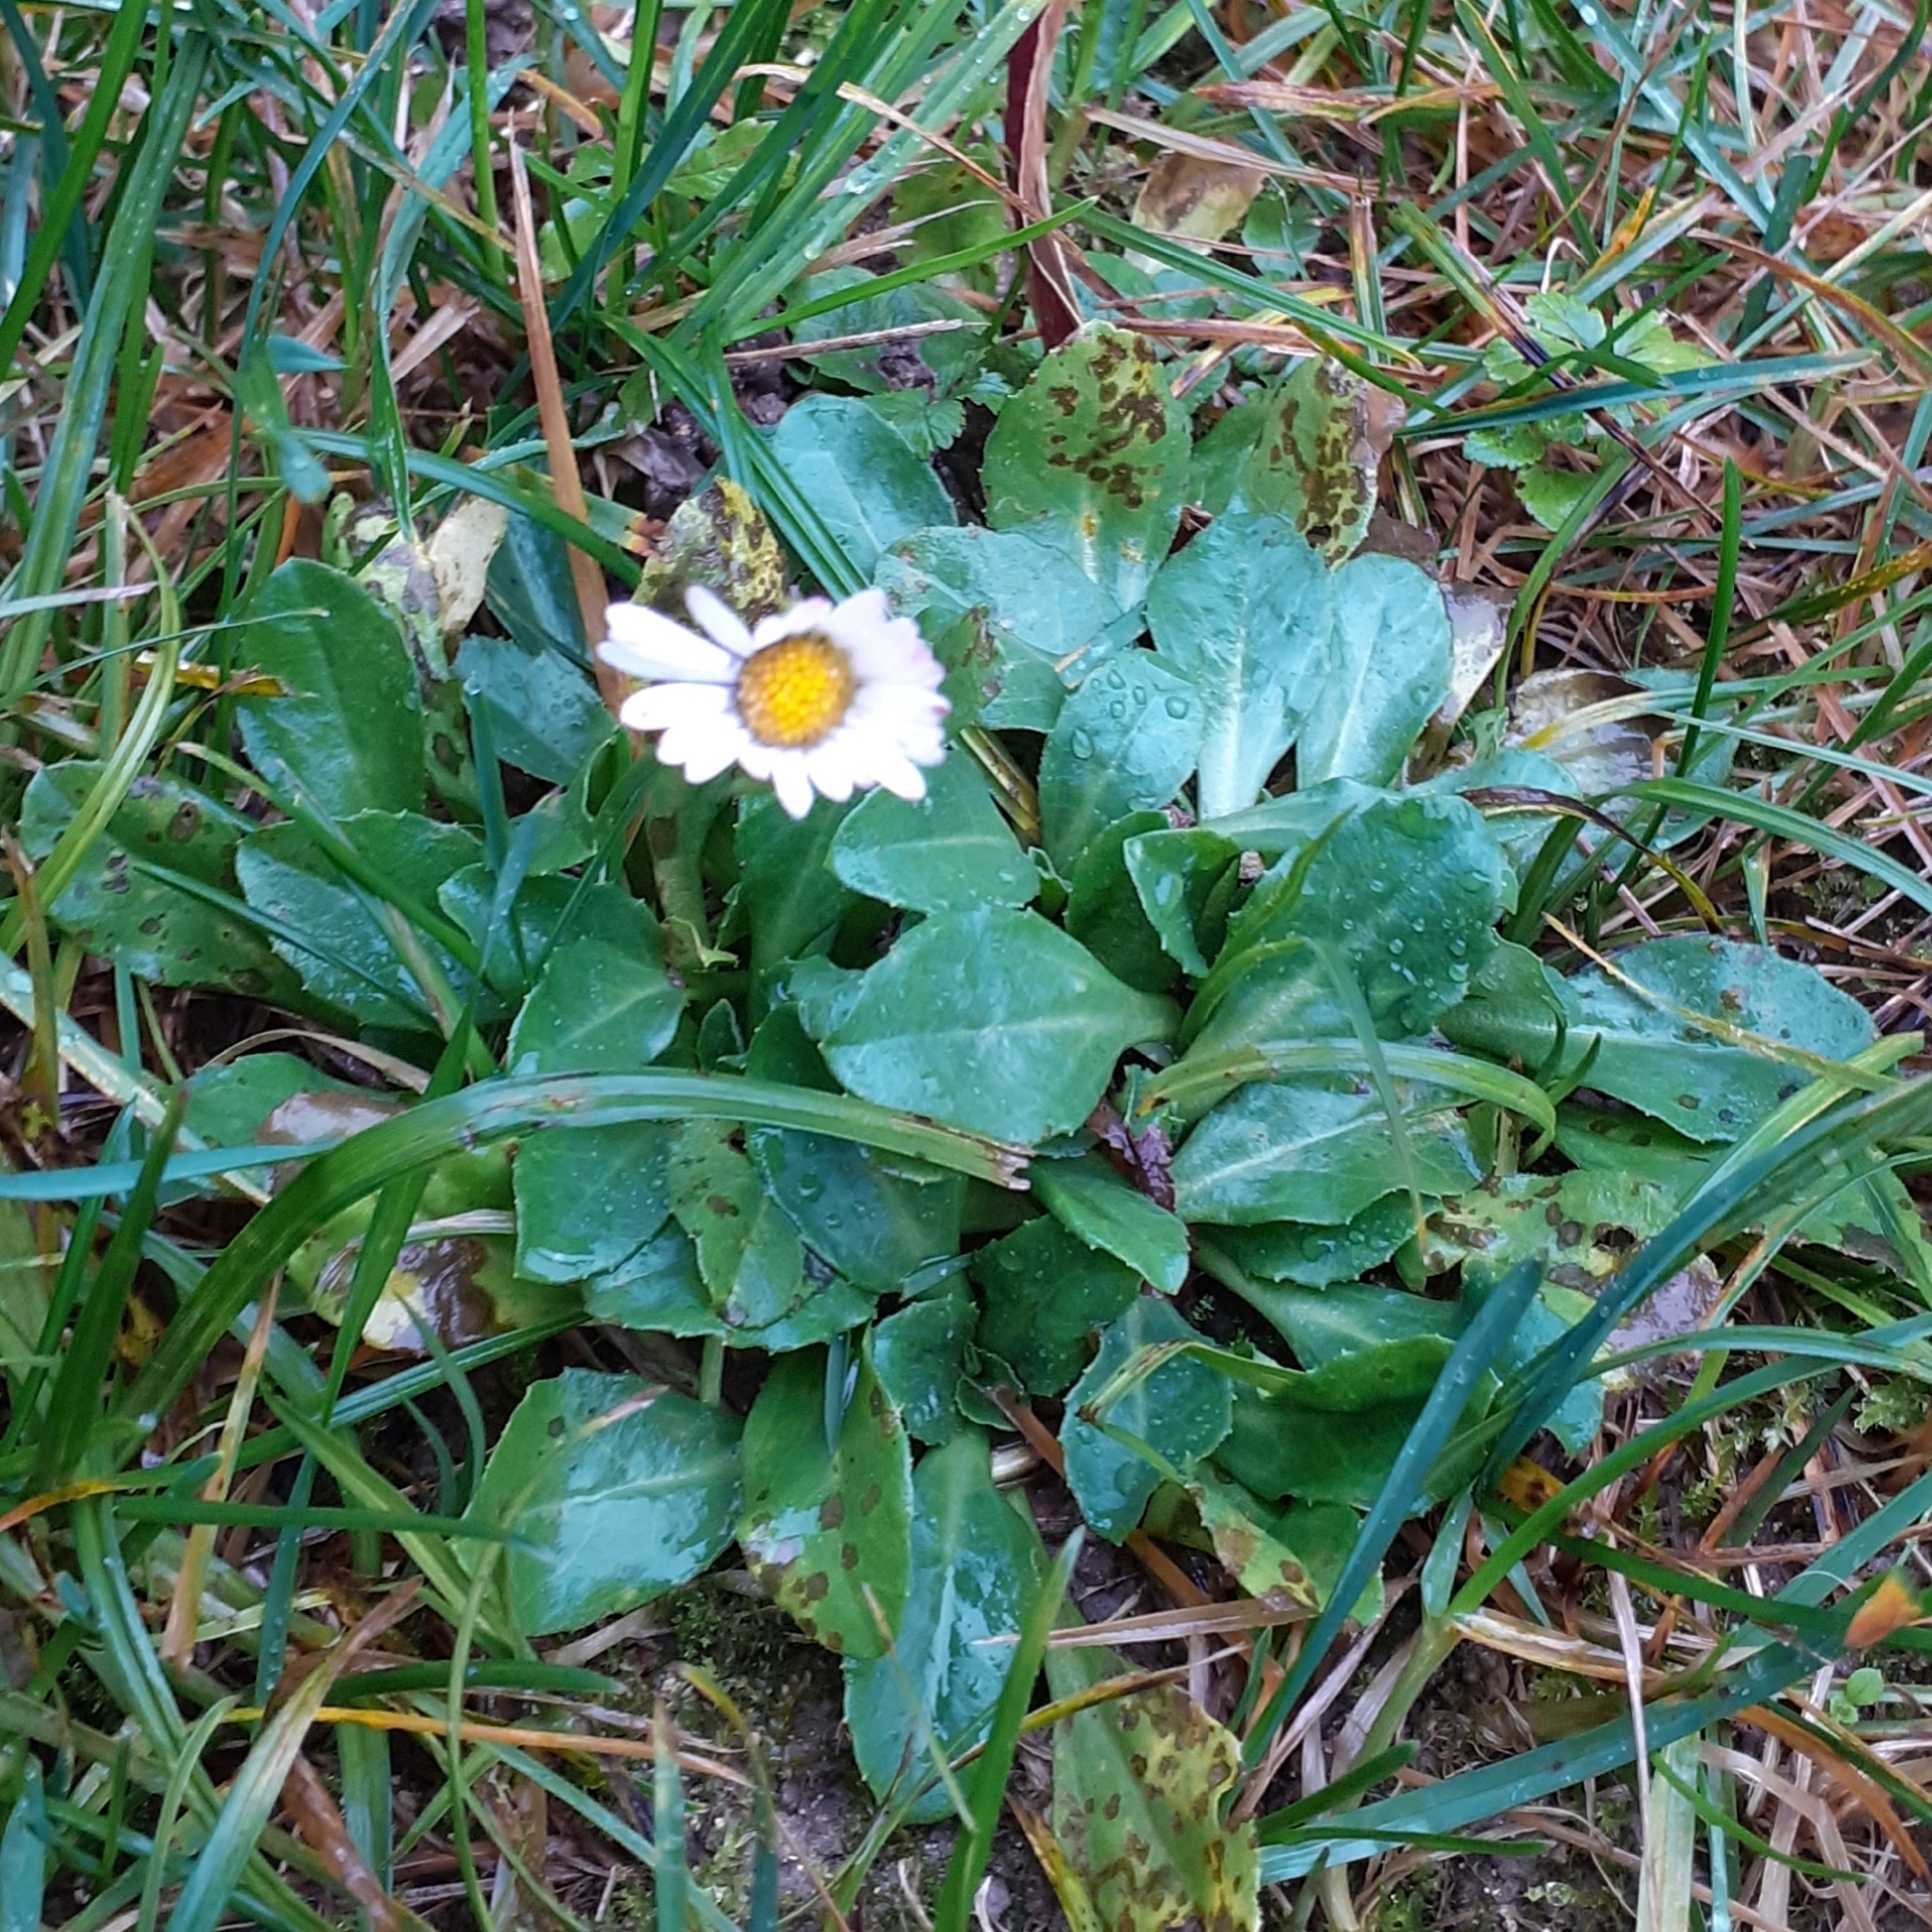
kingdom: Plantae
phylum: Tracheophyta
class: Magnoliopsida
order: Asterales
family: Asteraceae
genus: Bellis
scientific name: Bellis perennis
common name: Lawndaisy
